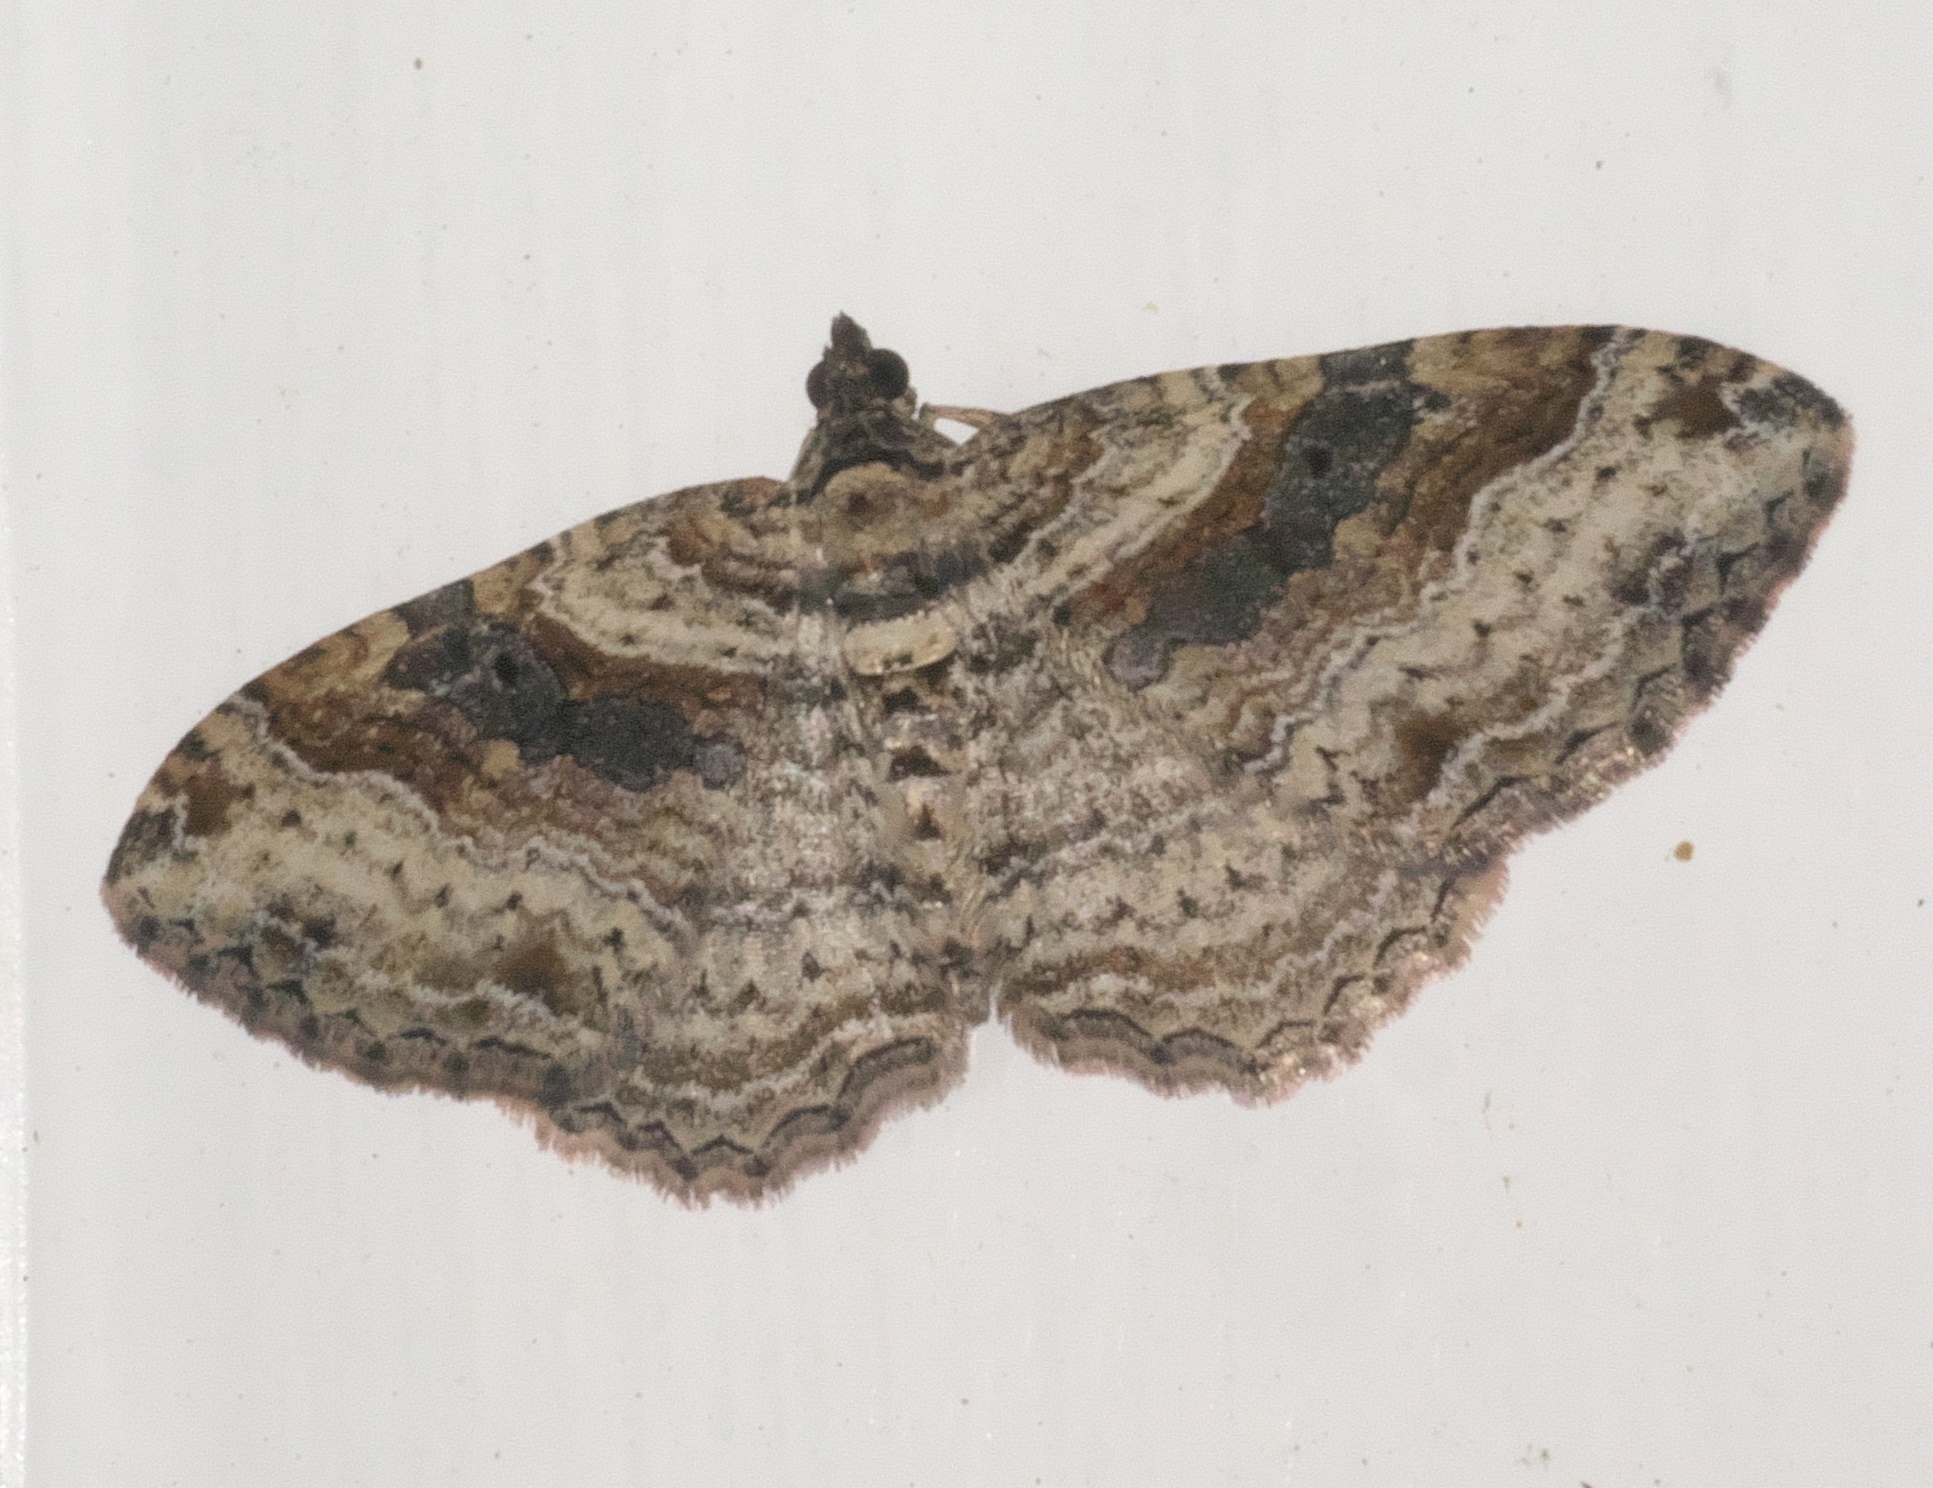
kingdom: Animalia
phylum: Arthropoda
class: Insecta
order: Lepidoptera
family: Geometridae
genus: Costaconvexa
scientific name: Costaconvexa centrostrigaria
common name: Bent-line carpet
